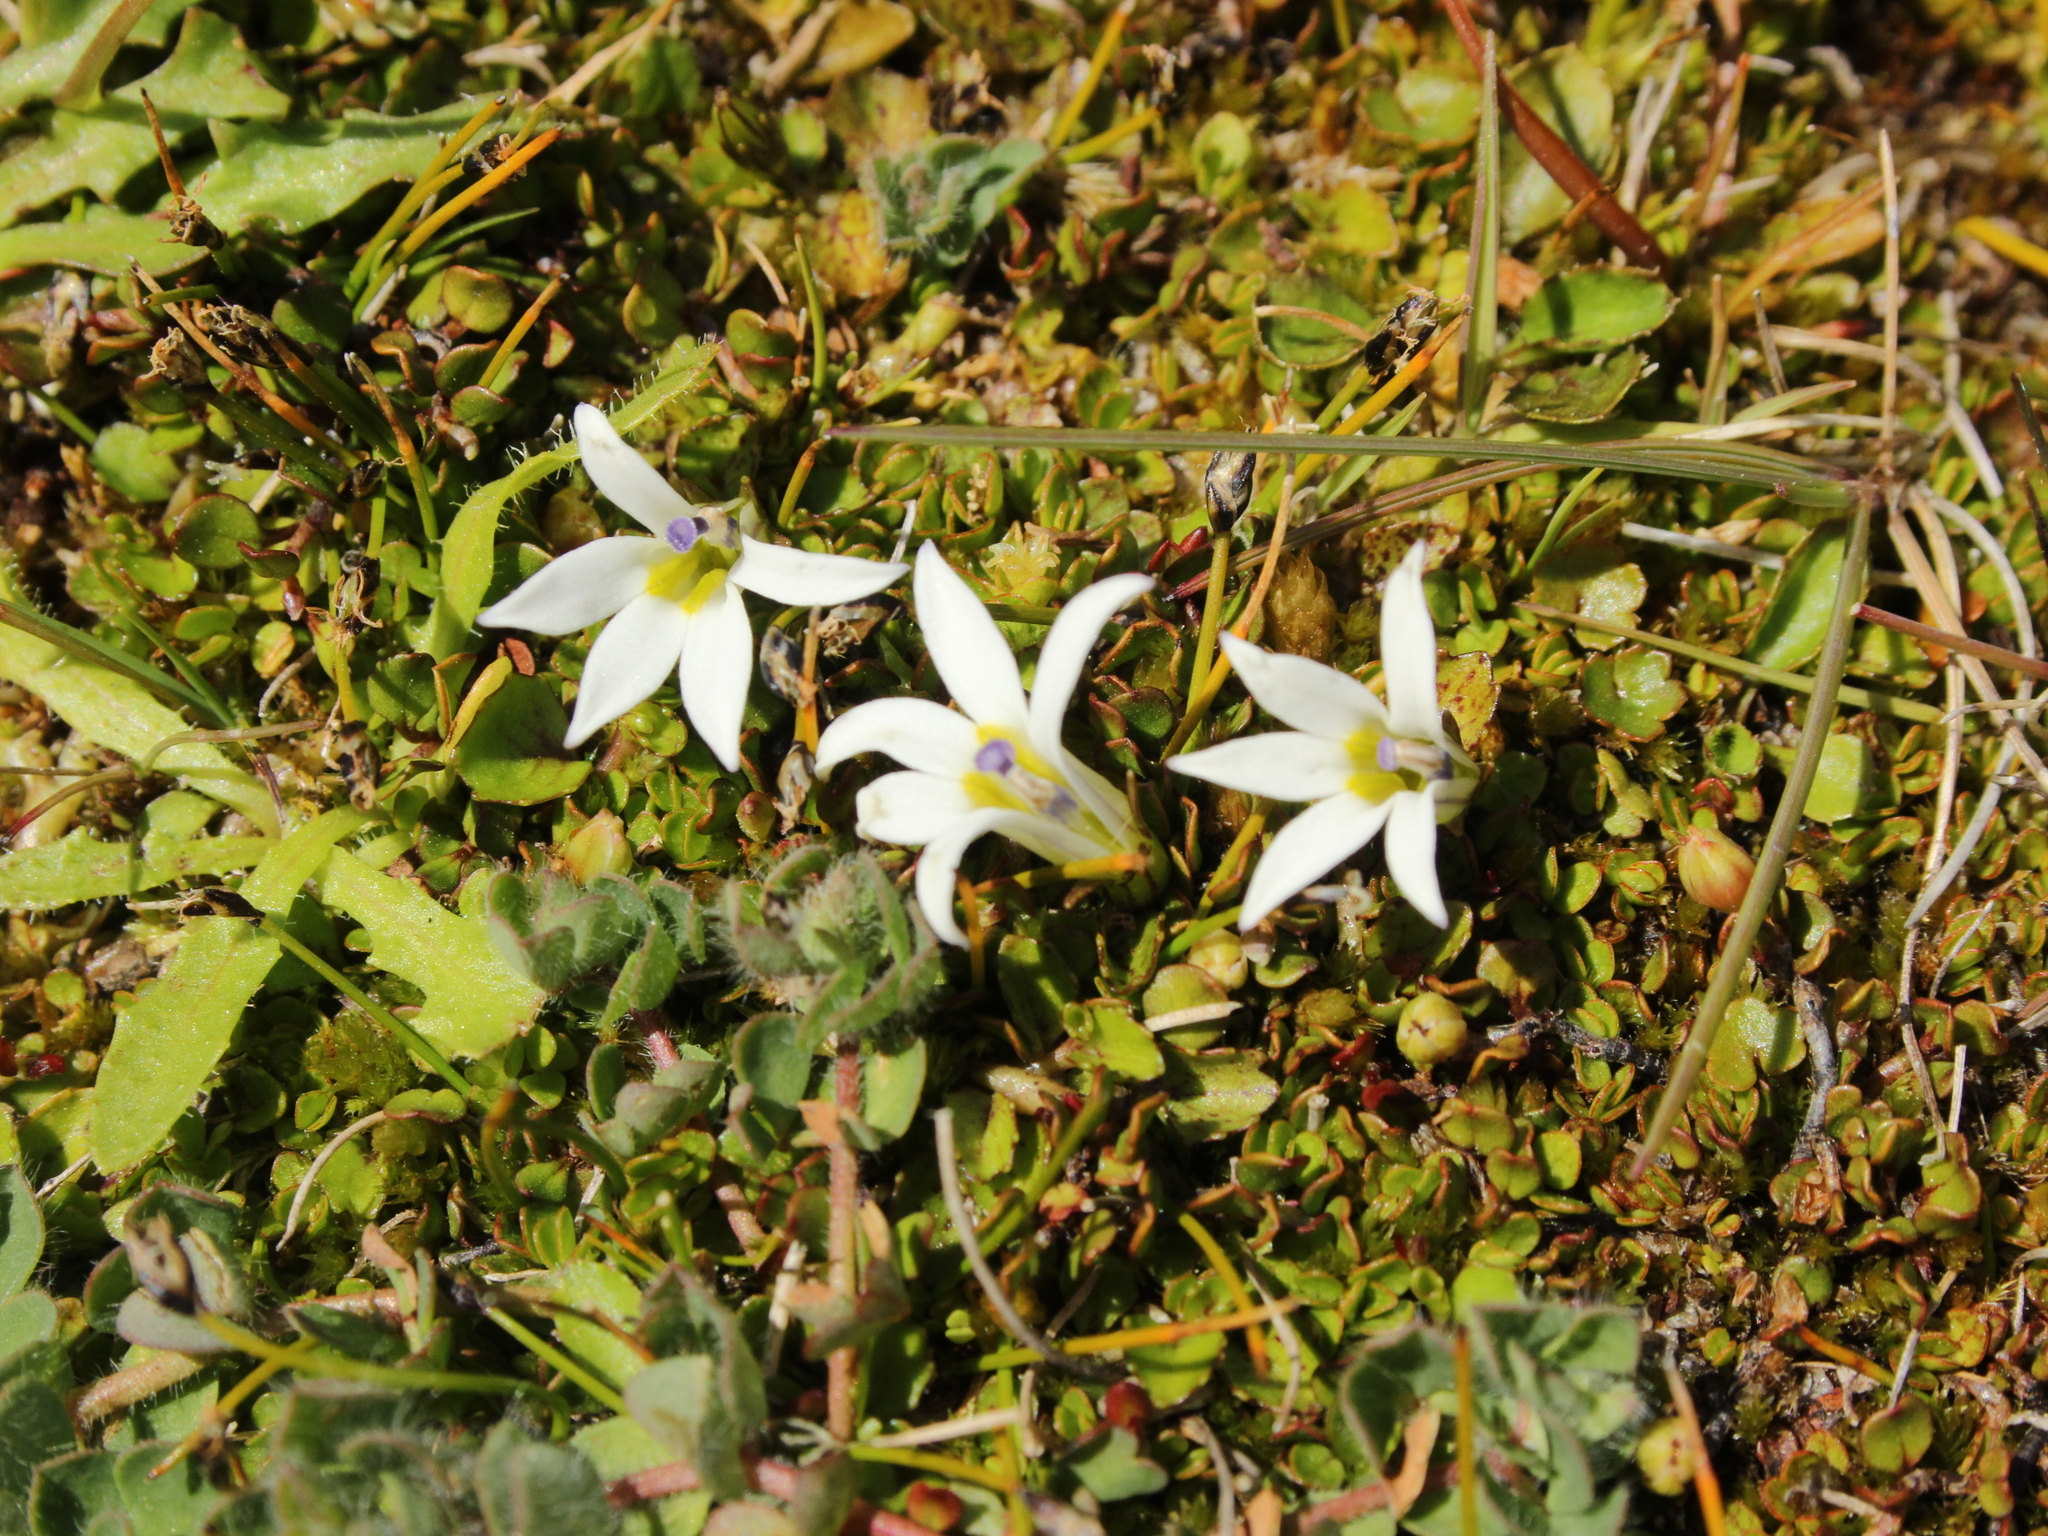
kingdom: Plantae
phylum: Tracheophyta
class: Magnoliopsida
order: Asterales
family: Campanulaceae
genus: Lobelia
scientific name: Lobelia angulata
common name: Lawn lobelia
